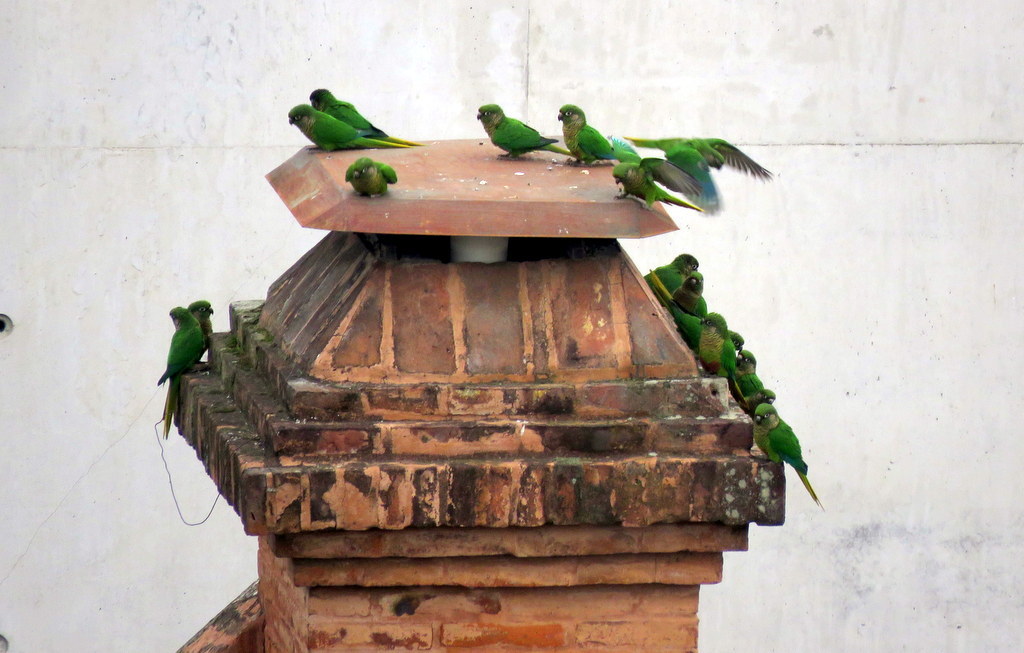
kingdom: Animalia
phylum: Chordata
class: Aves
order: Psittaciformes
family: Psittacidae
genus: Pyrrhura
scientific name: Pyrrhura frontalis
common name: Maroon-bellied parakeet
